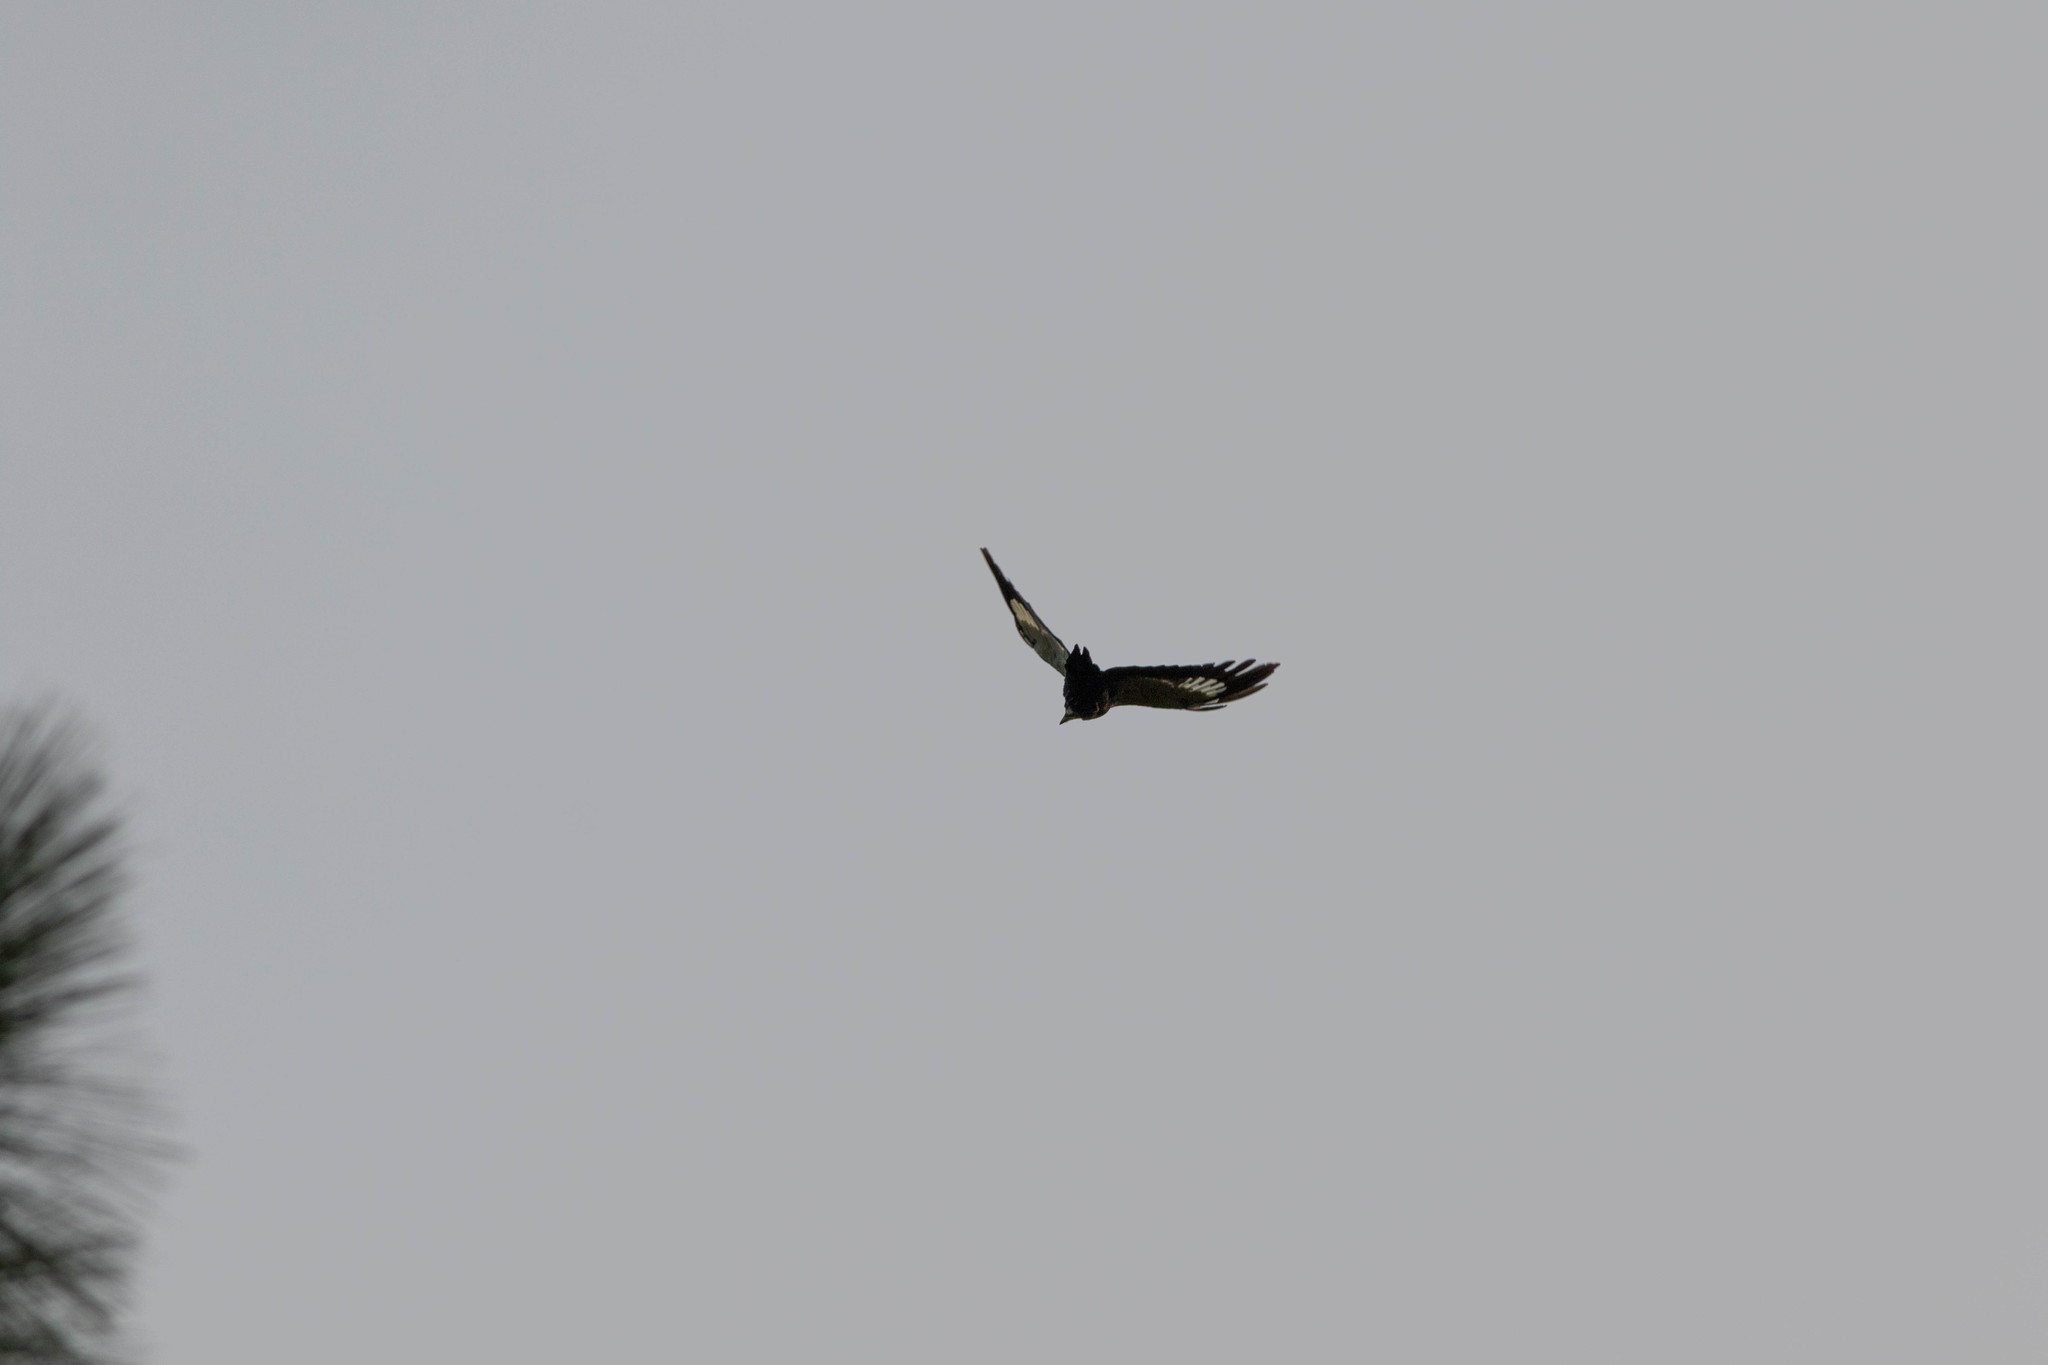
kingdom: Animalia
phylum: Chordata
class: Aves
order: Piciformes
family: Picidae
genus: Dryocopus
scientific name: Dryocopus pileatus
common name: Pileated woodpecker
